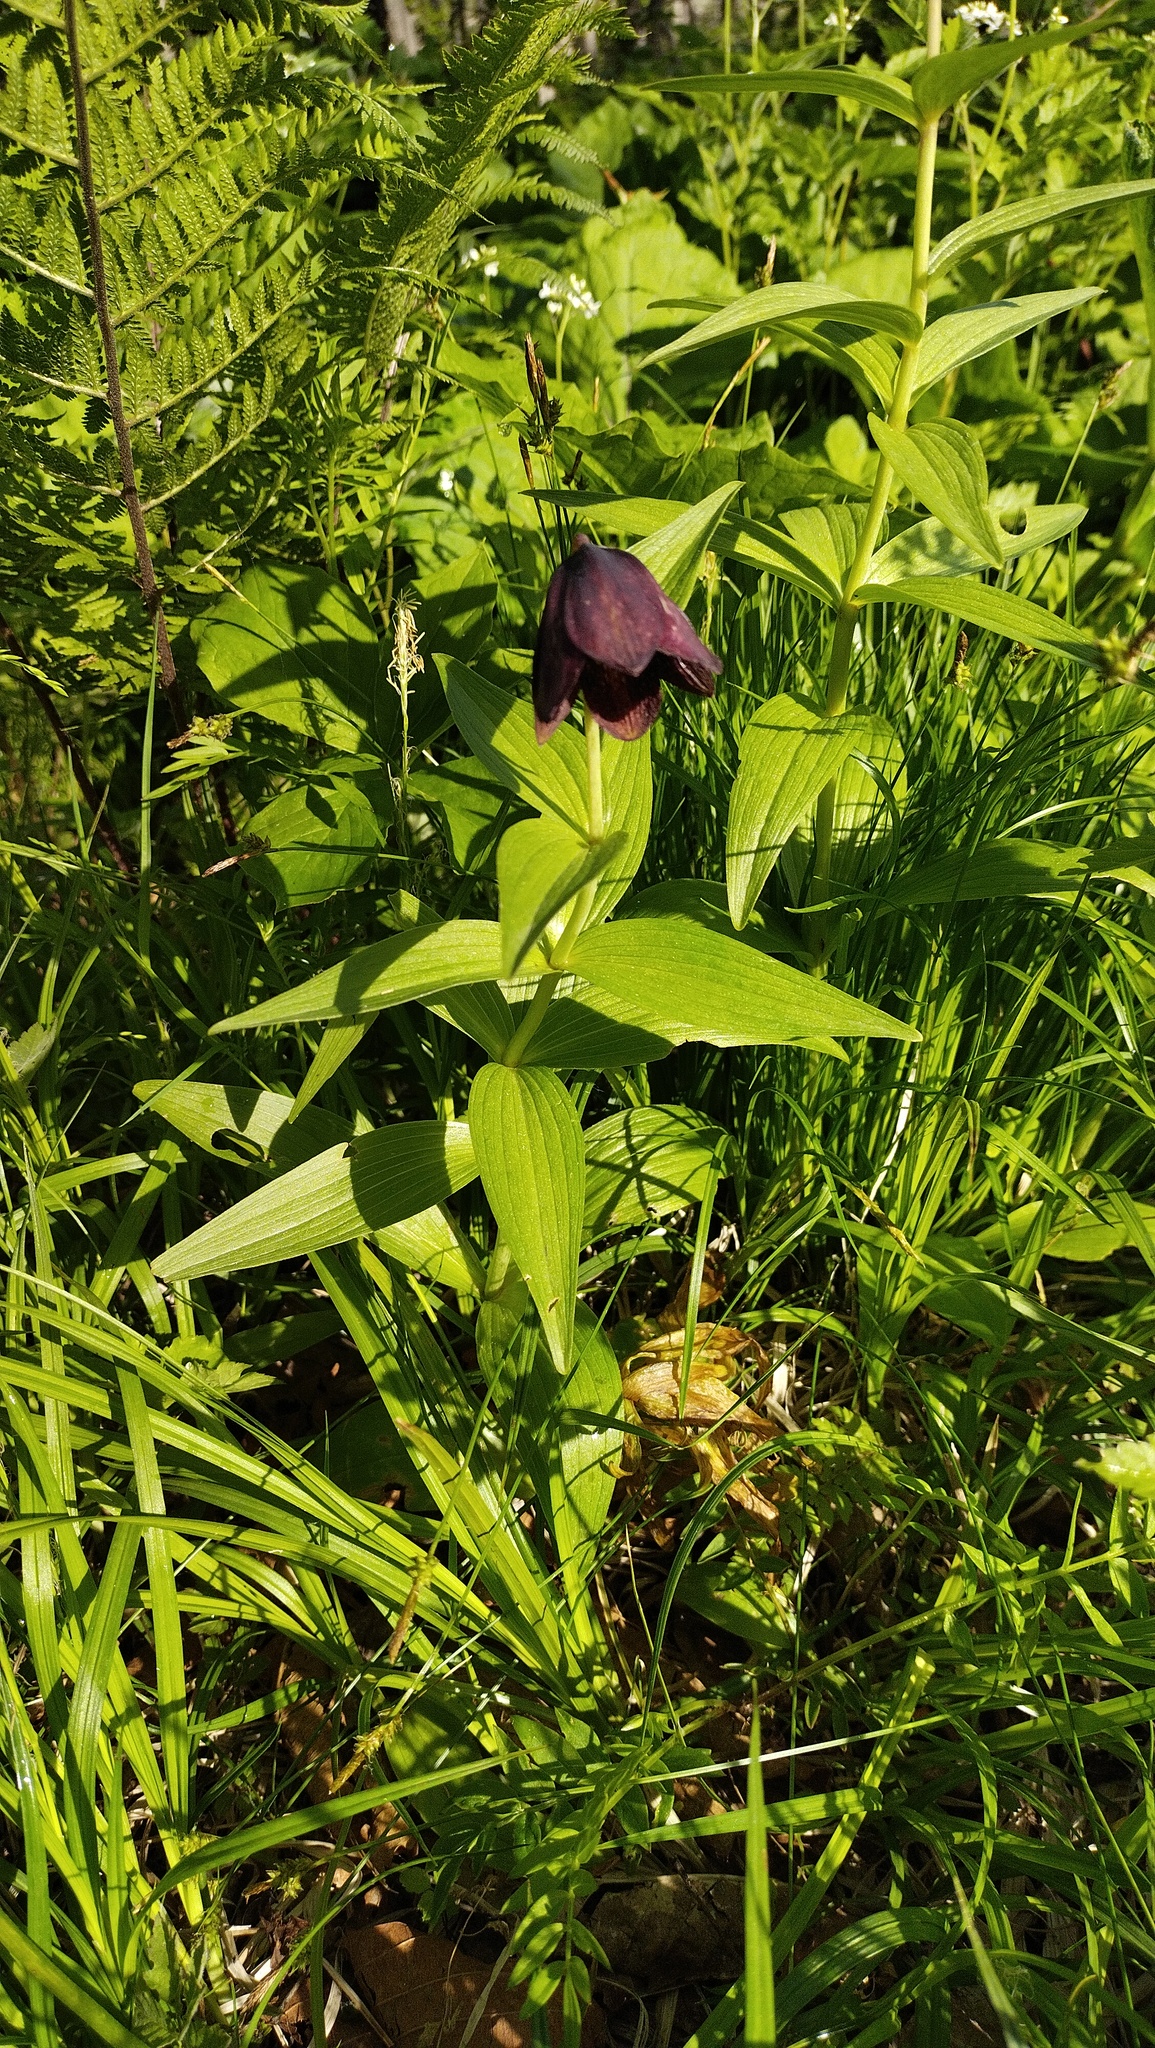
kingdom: Plantae
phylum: Tracheophyta
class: Liliopsida
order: Liliales
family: Liliaceae
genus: Fritillaria
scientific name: Fritillaria camschatcensis
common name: Kamchatka fritillary
